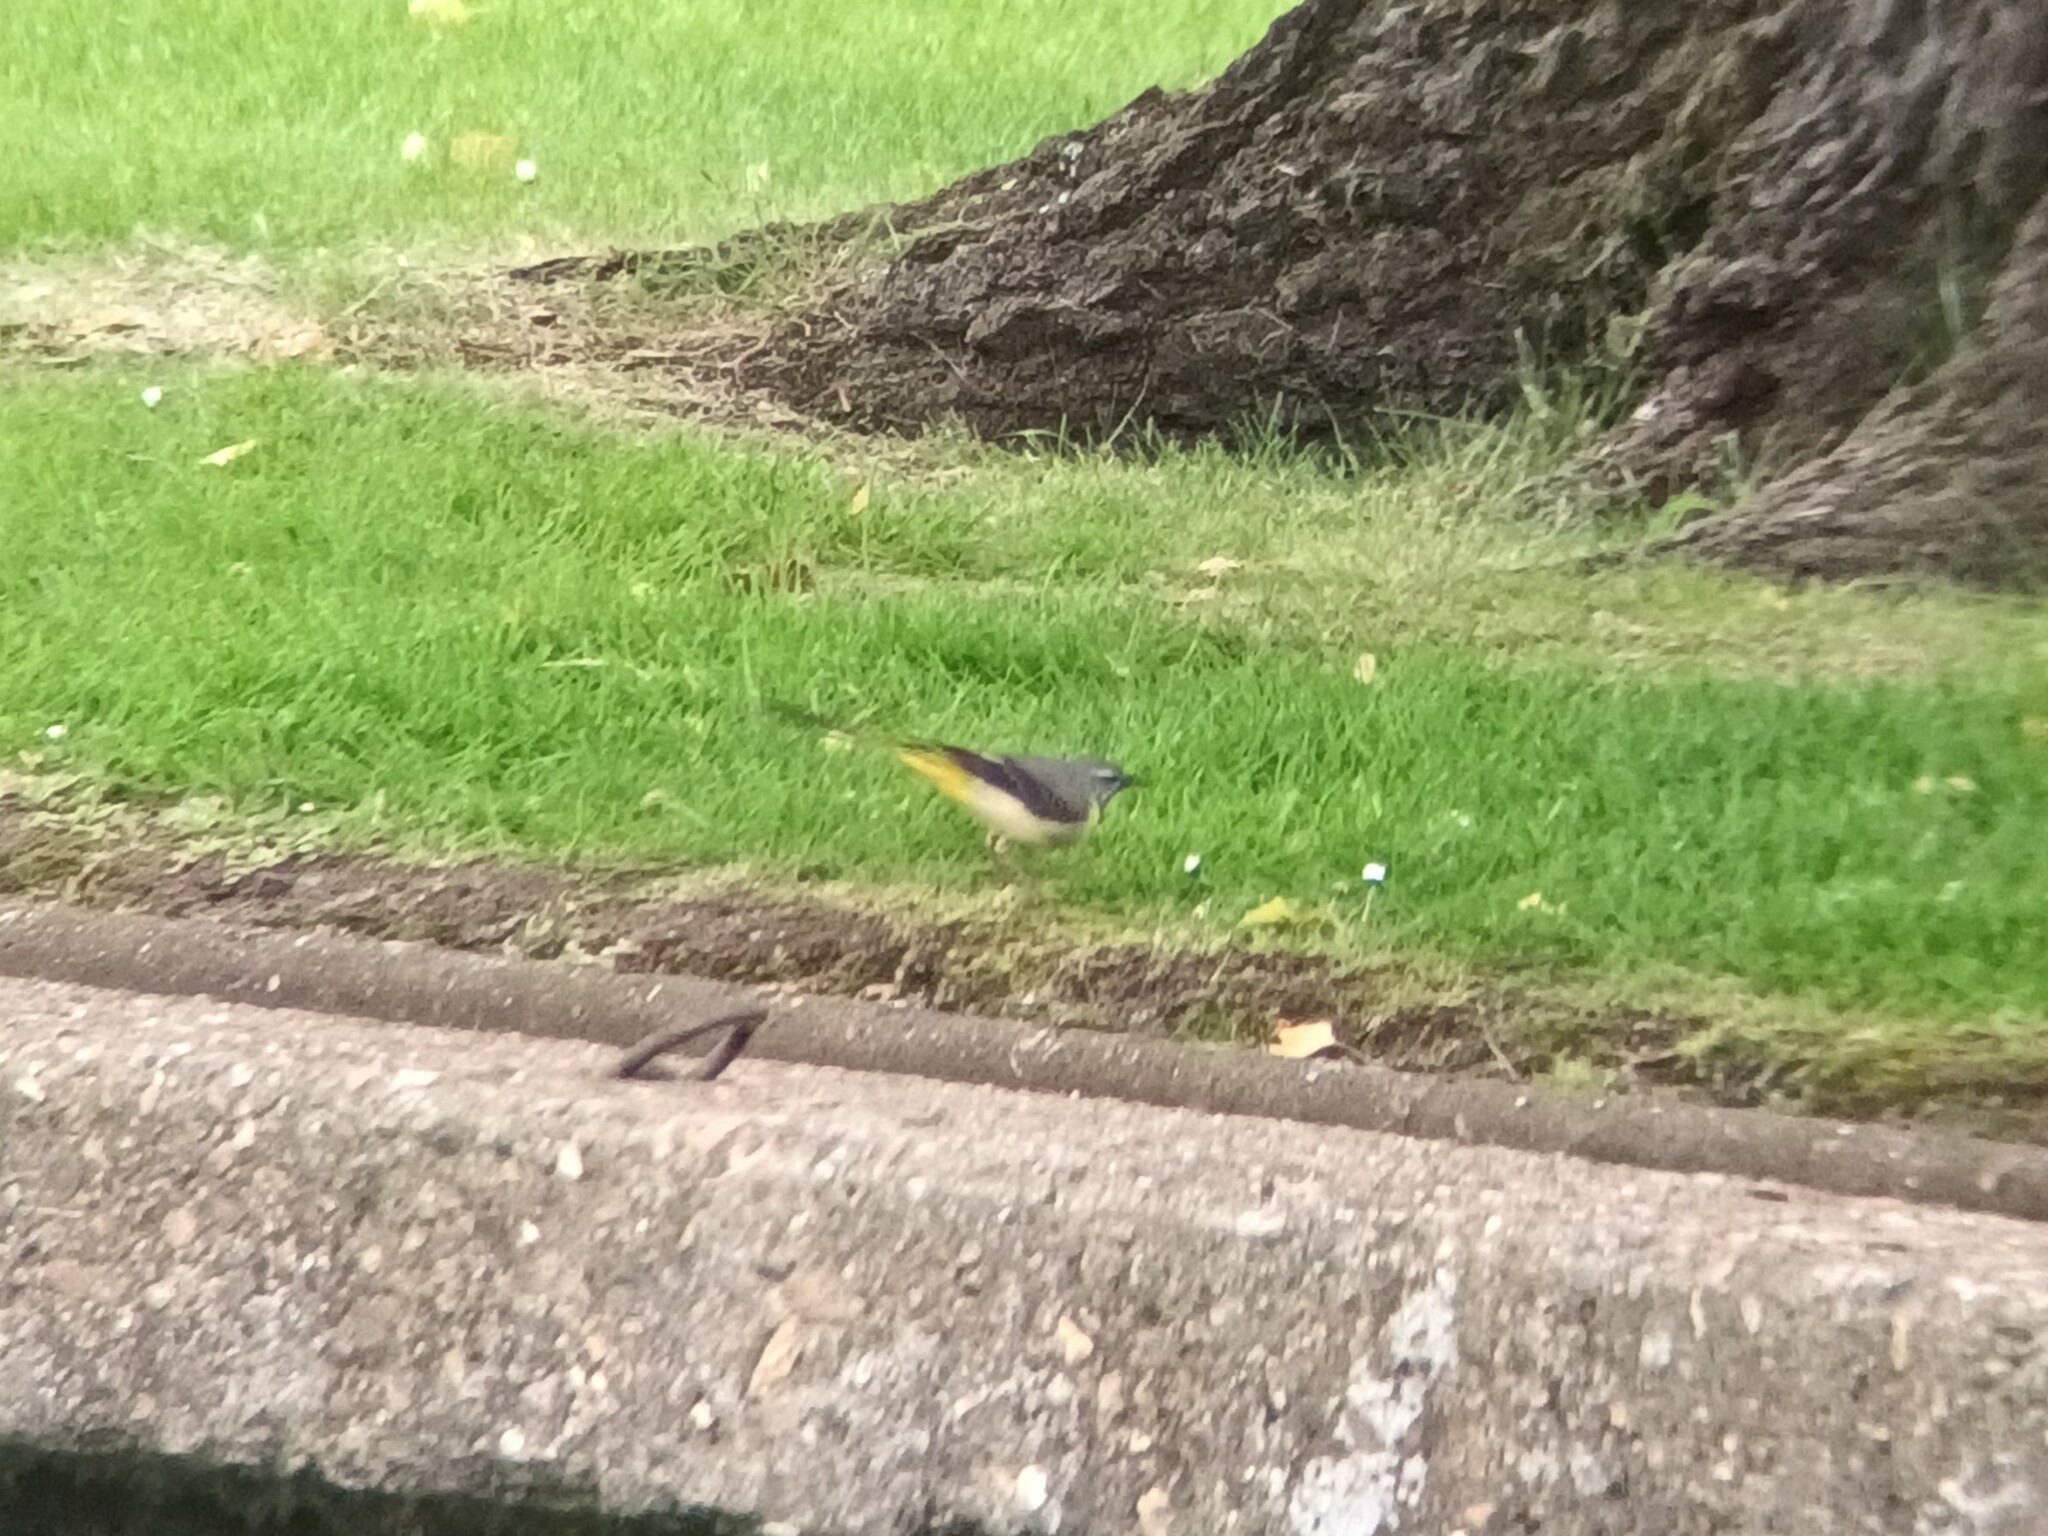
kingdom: Animalia
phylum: Chordata
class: Aves
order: Passeriformes
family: Motacillidae
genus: Motacilla
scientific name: Motacilla cinerea
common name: Grey wagtail
